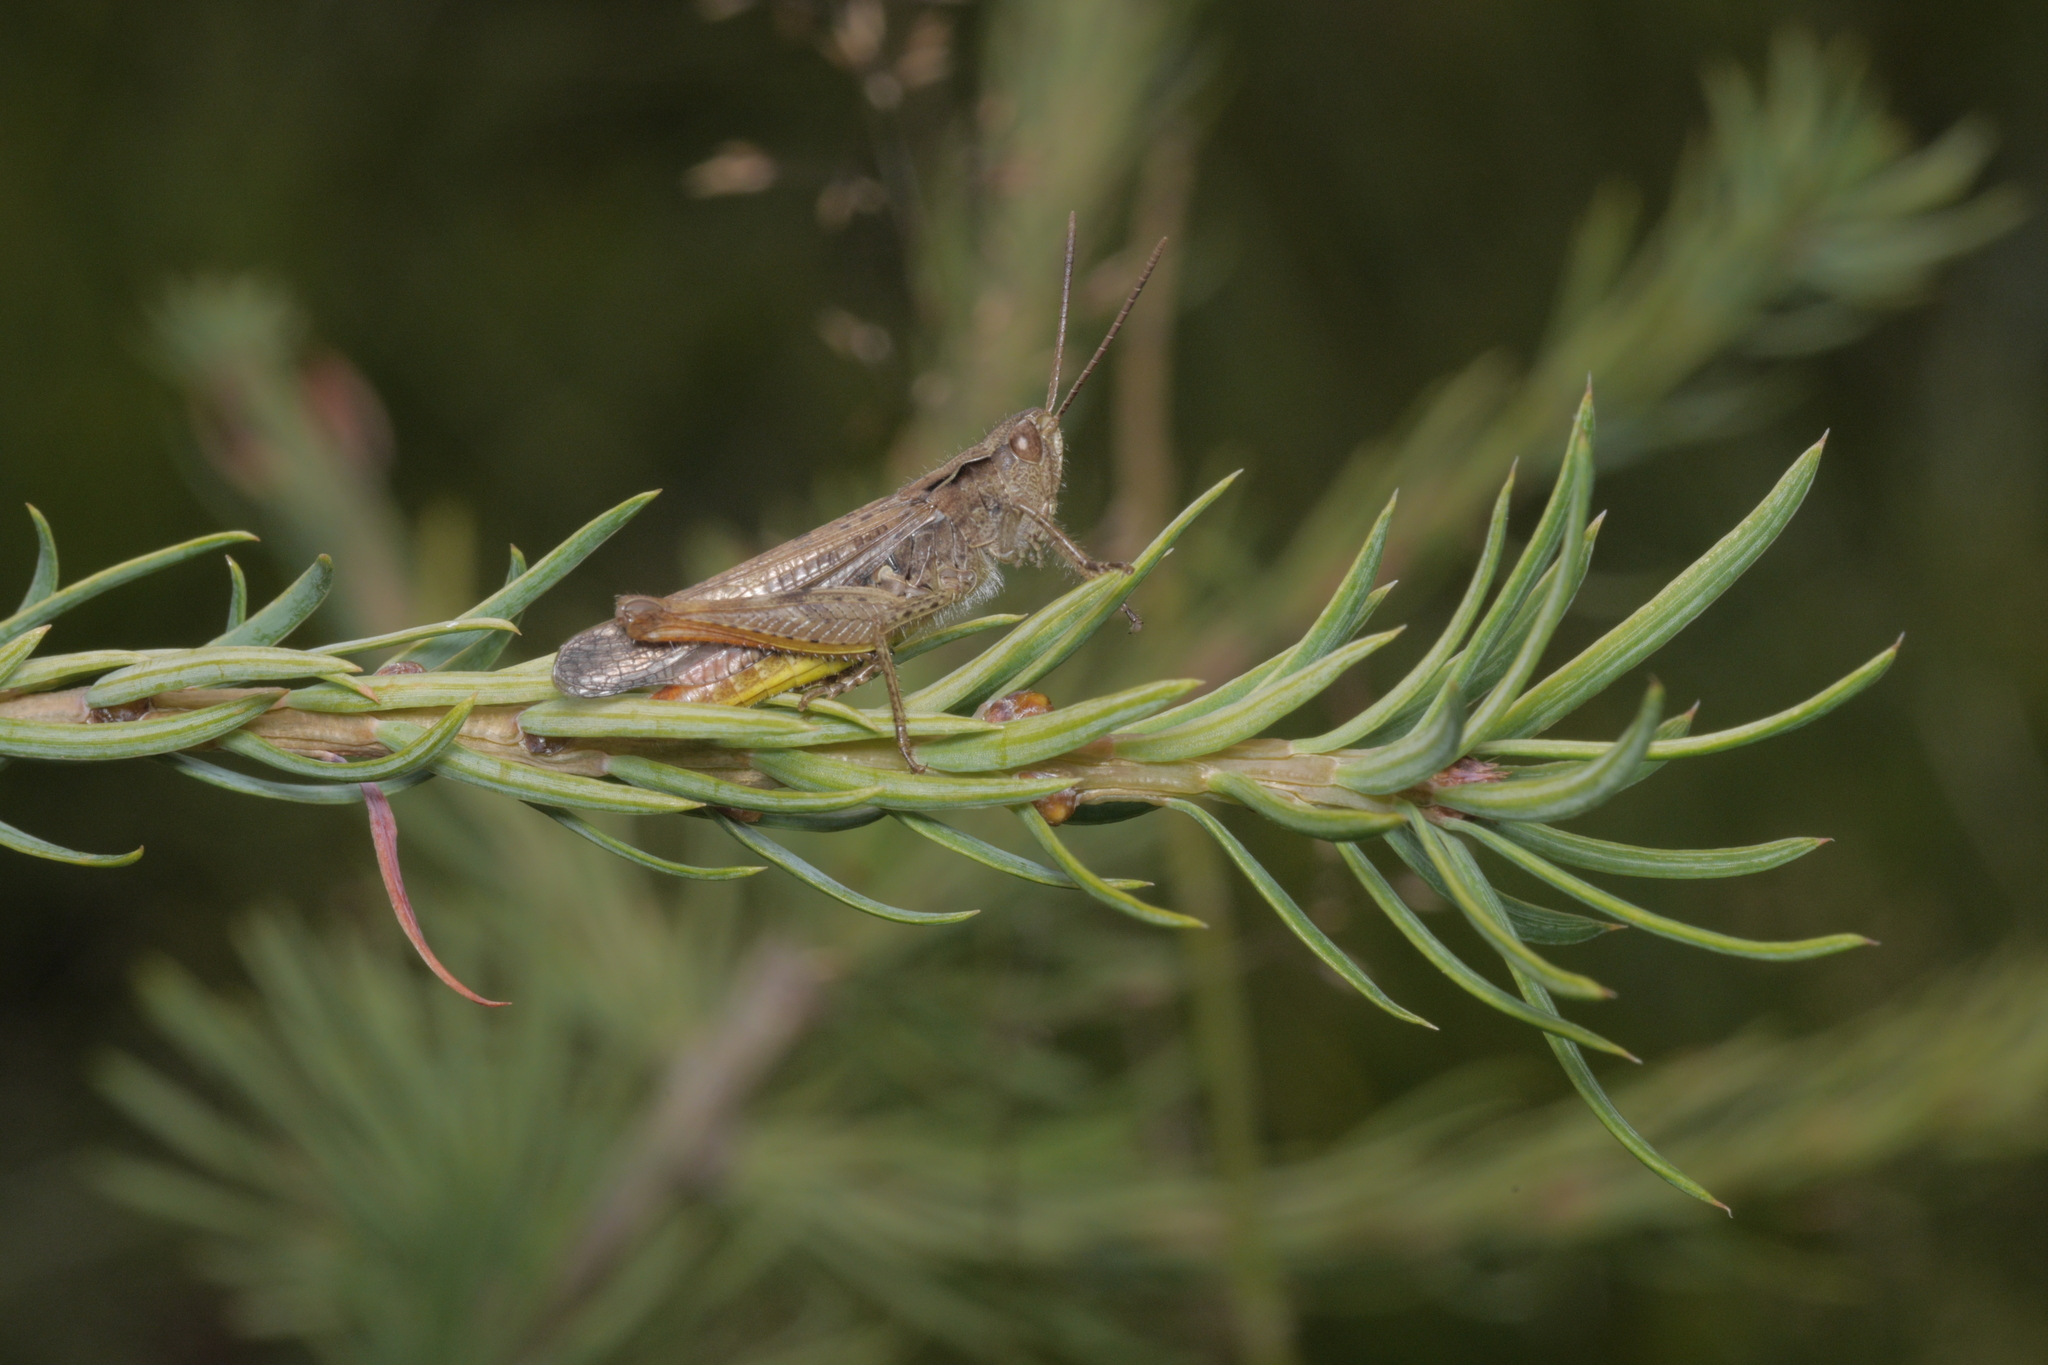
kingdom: Animalia
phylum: Arthropoda
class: Insecta
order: Orthoptera
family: Acrididae
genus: Chorthippus
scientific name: Chorthippus biguttulus
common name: Bow-winged grasshopper
